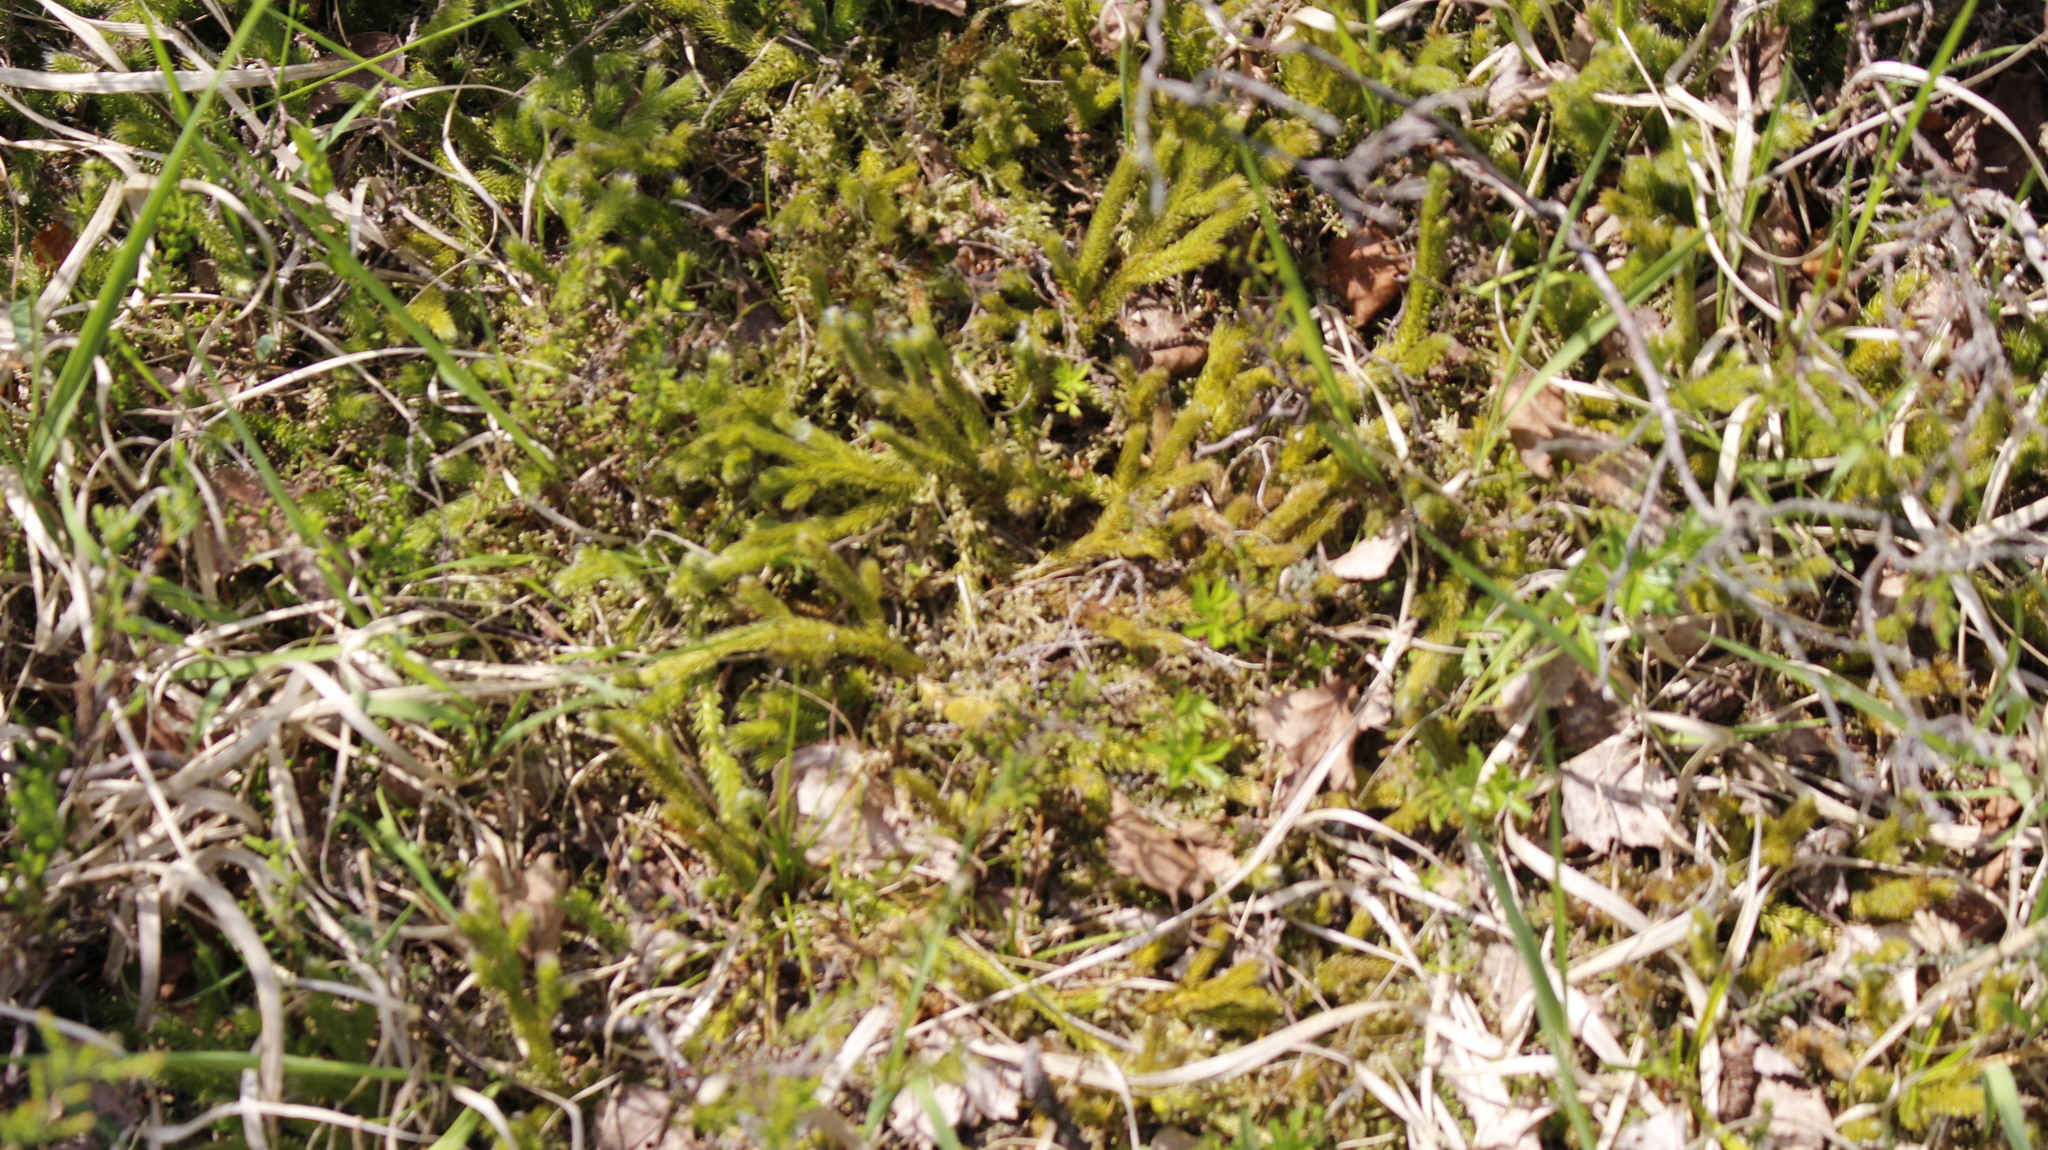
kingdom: Plantae
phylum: Tracheophyta
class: Lycopodiopsida
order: Lycopodiales
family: Lycopodiaceae
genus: Lycopodium
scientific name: Lycopodium clavatum
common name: Stag's-horn clubmoss
